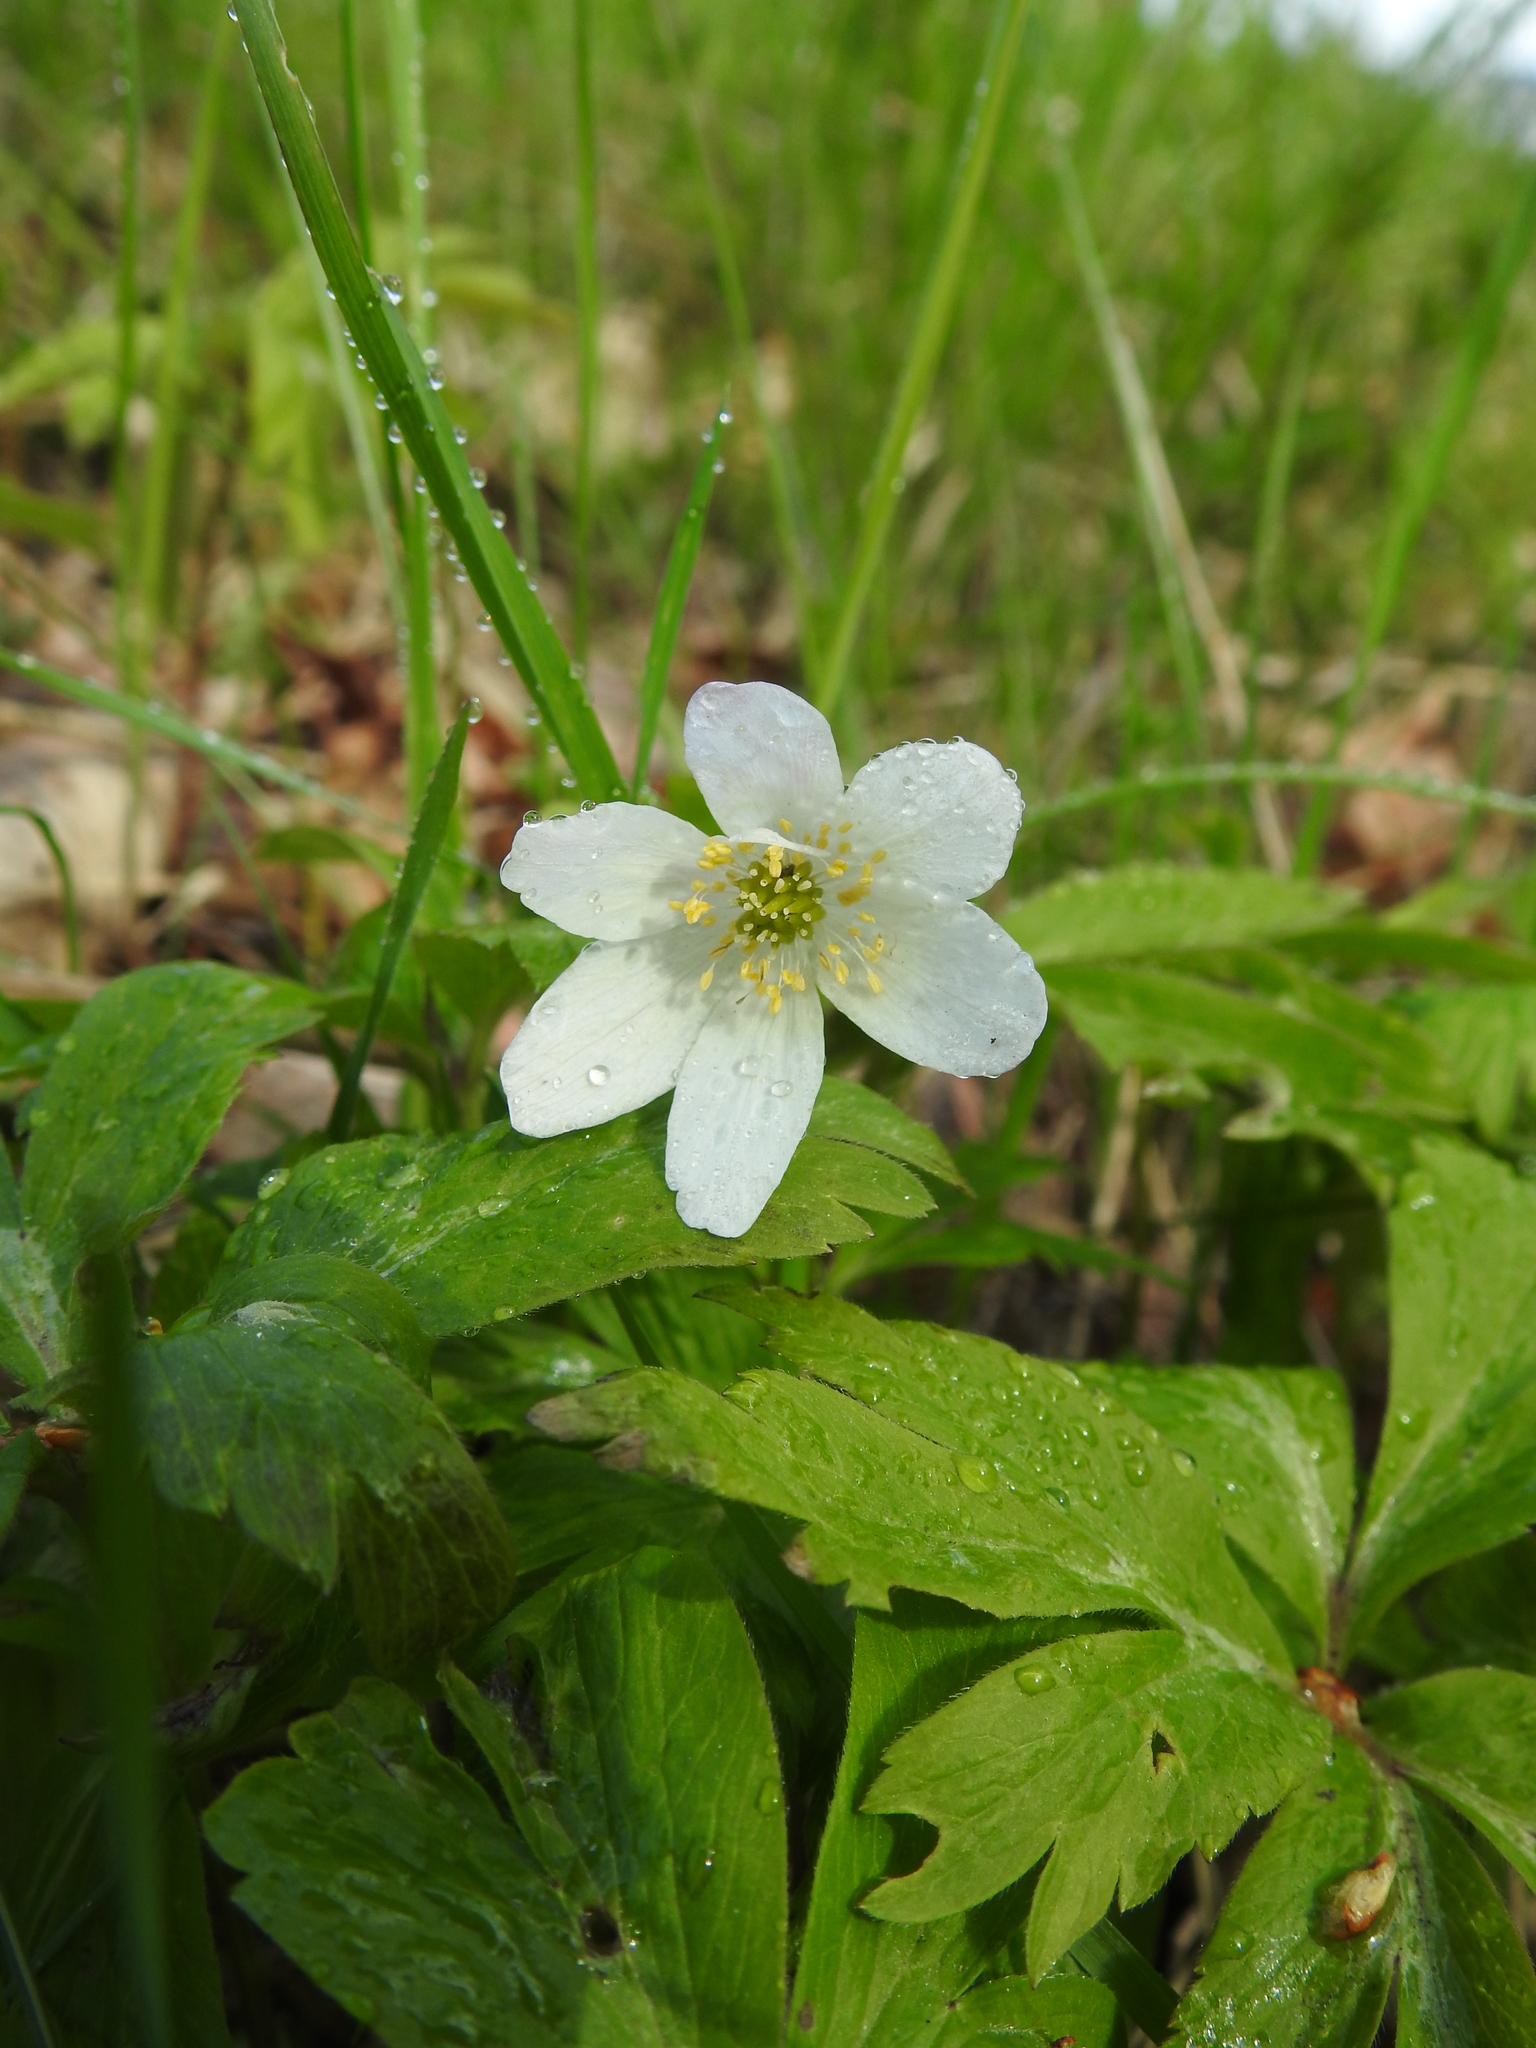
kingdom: Plantae
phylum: Tracheophyta
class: Magnoliopsida
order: Ranunculales
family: Ranunculaceae
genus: Anemone
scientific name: Anemone nemorosa
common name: Wood anemone
